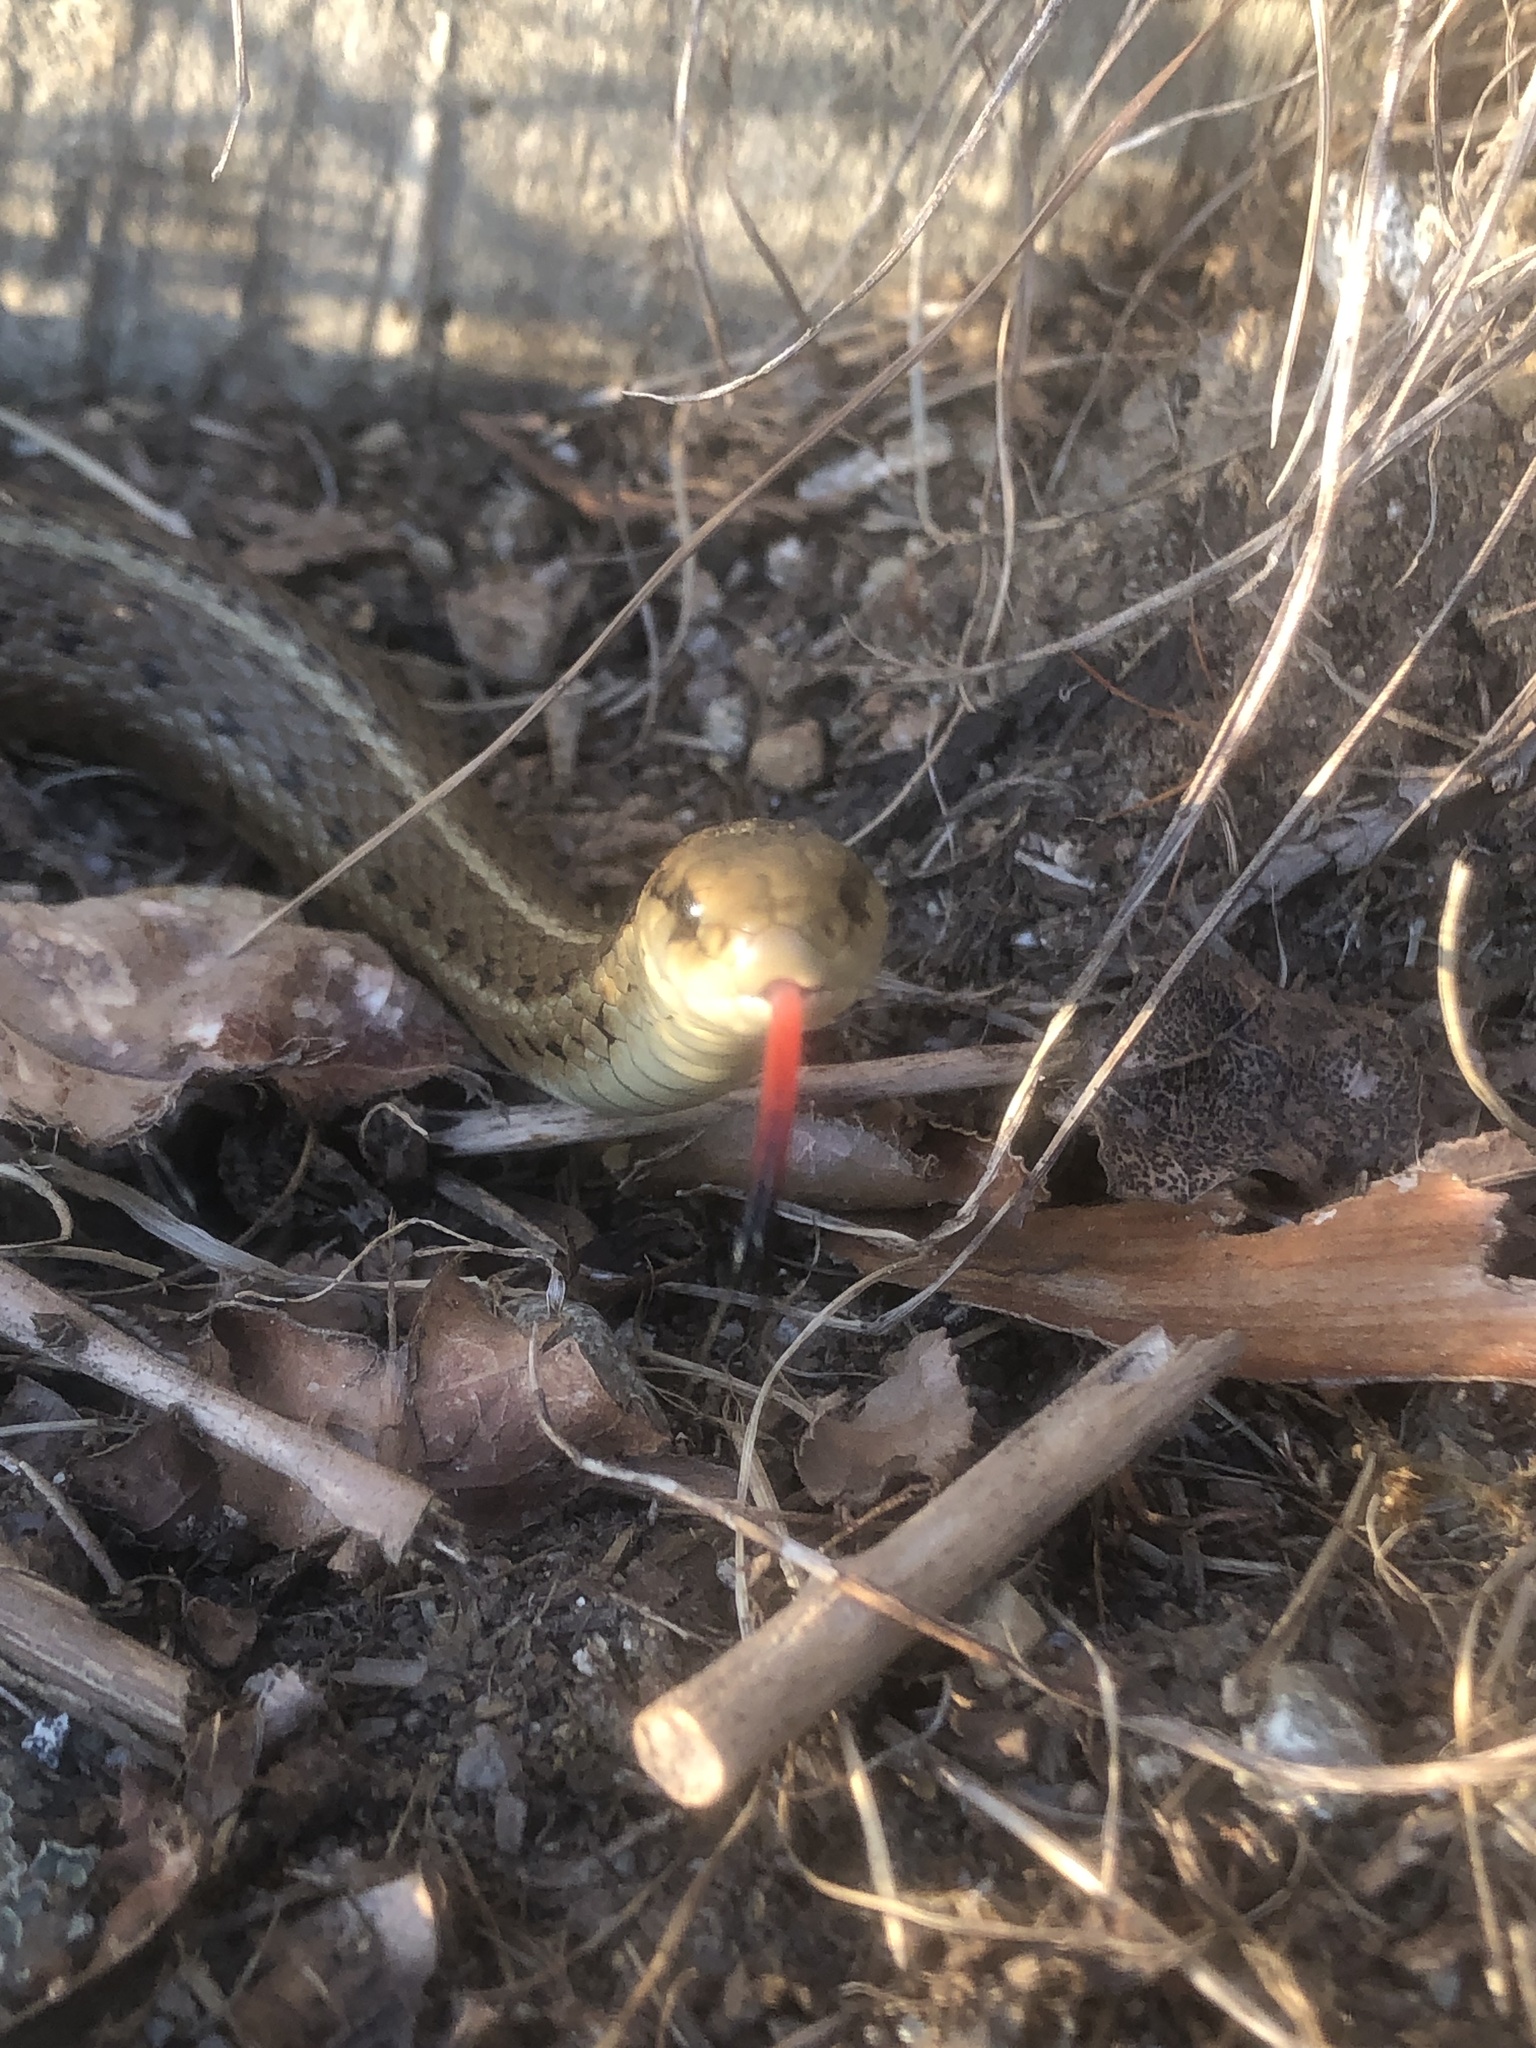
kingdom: Animalia
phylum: Chordata
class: Squamata
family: Colubridae
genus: Thamnophis
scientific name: Thamnophis ordinoides
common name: Northwestern garter snake
